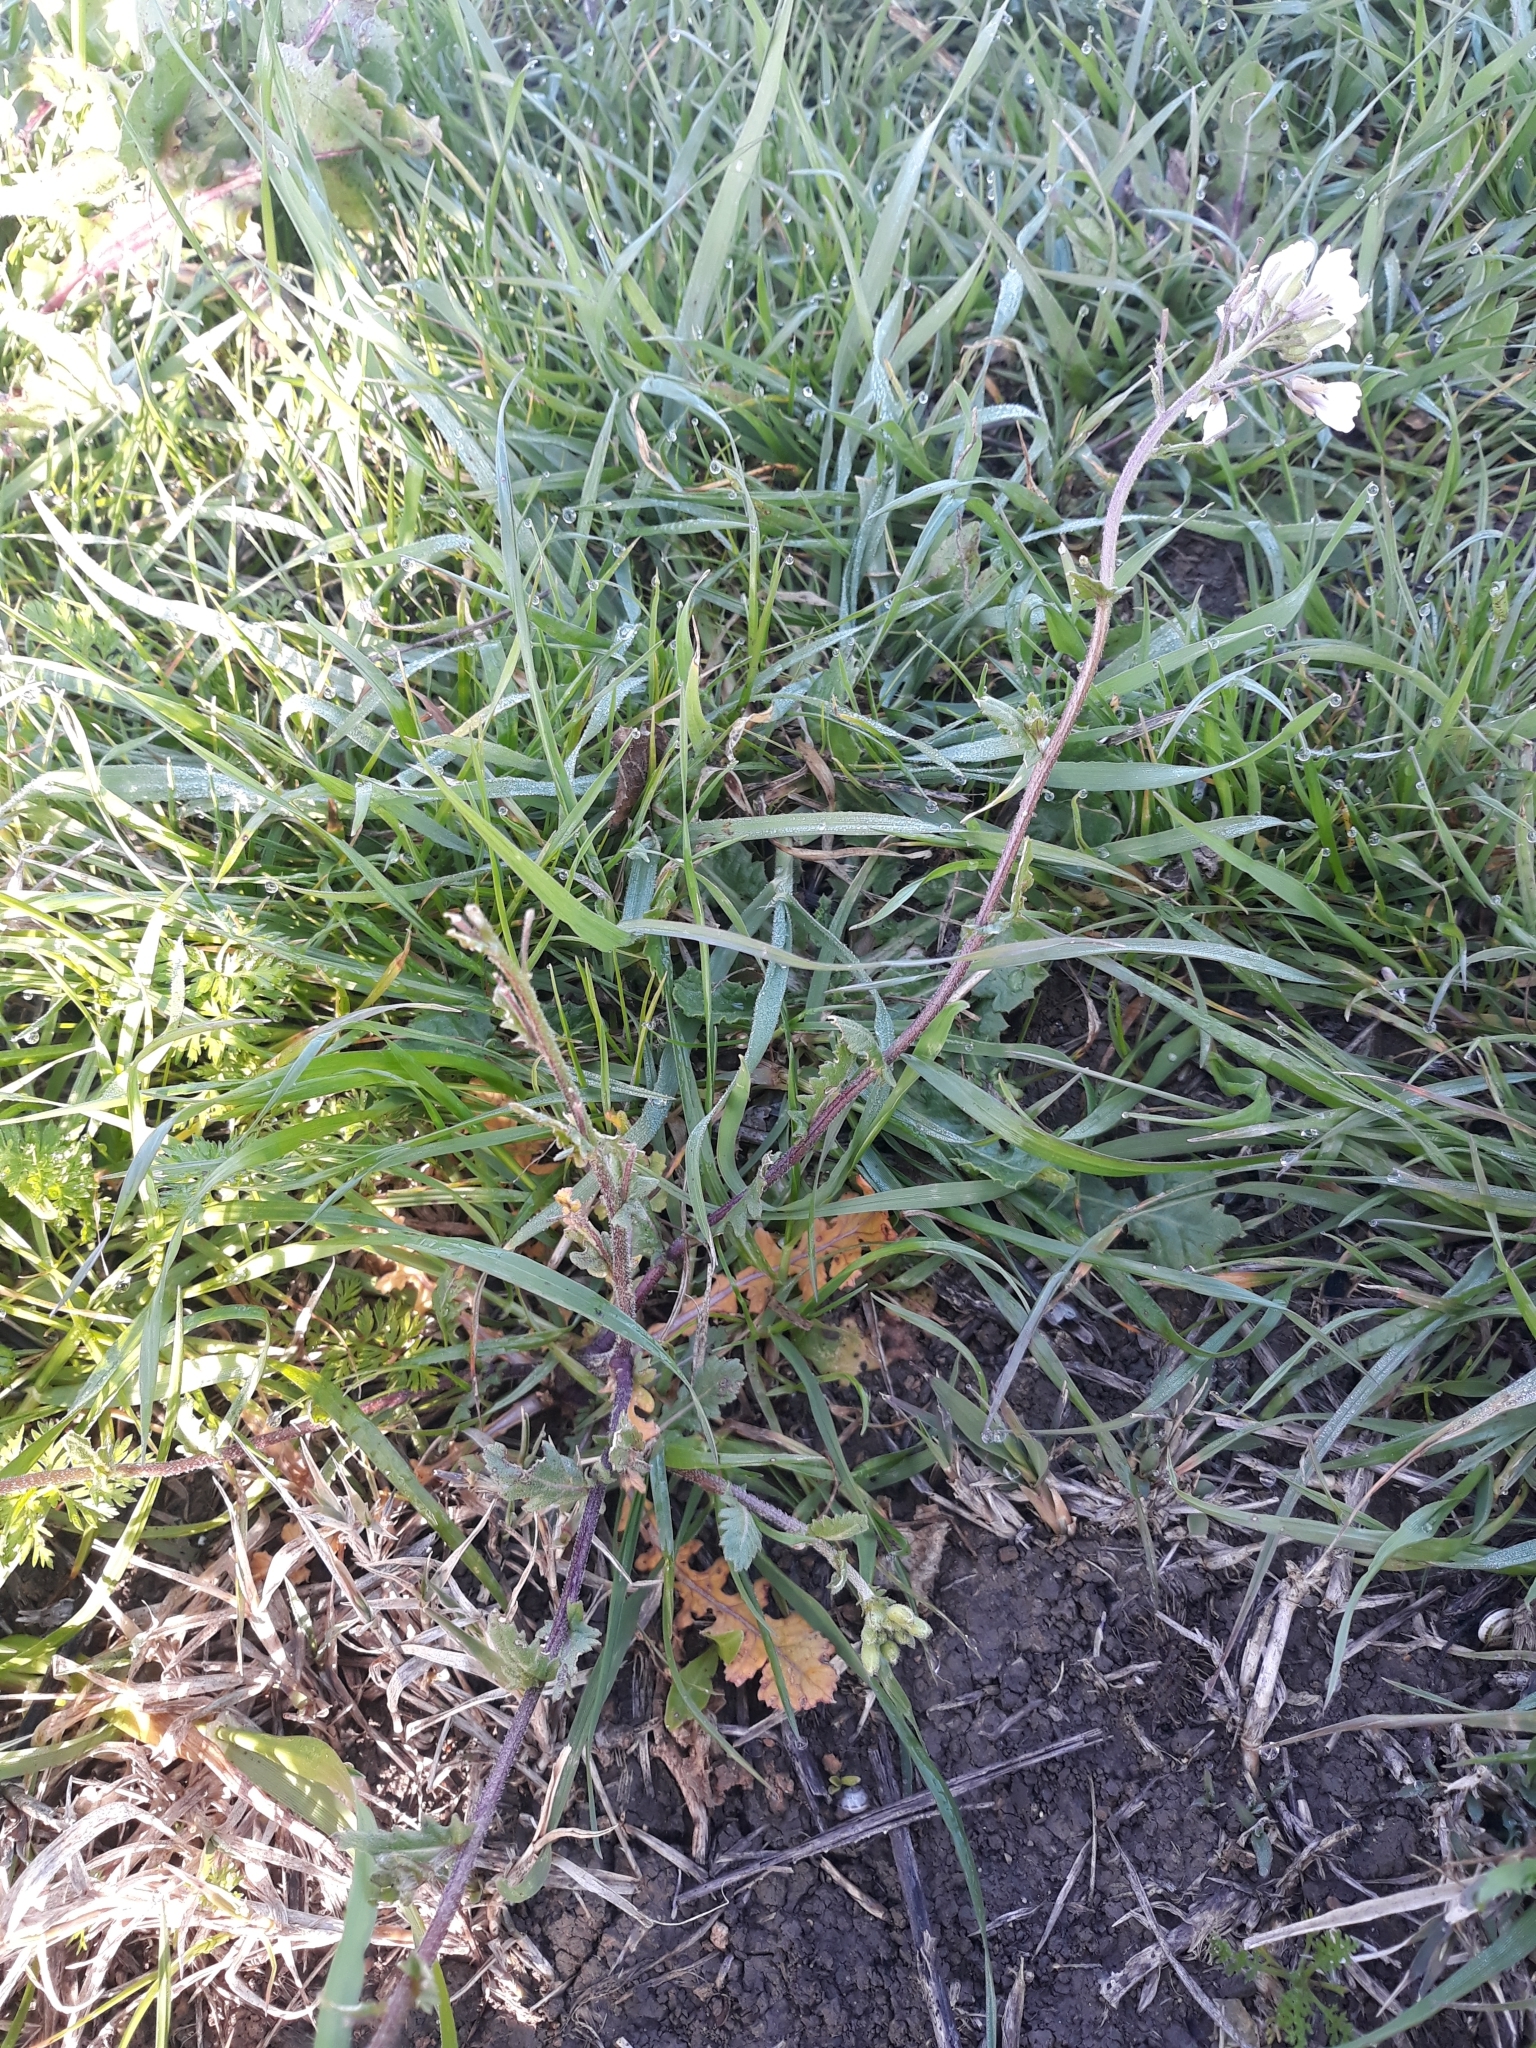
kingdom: Plantae
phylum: Tracheophyta
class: Magnoliopsida
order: Brassicales
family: Brassicaceae
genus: Diplotaxis
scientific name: Diplotaxis erucoides
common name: White rocket
